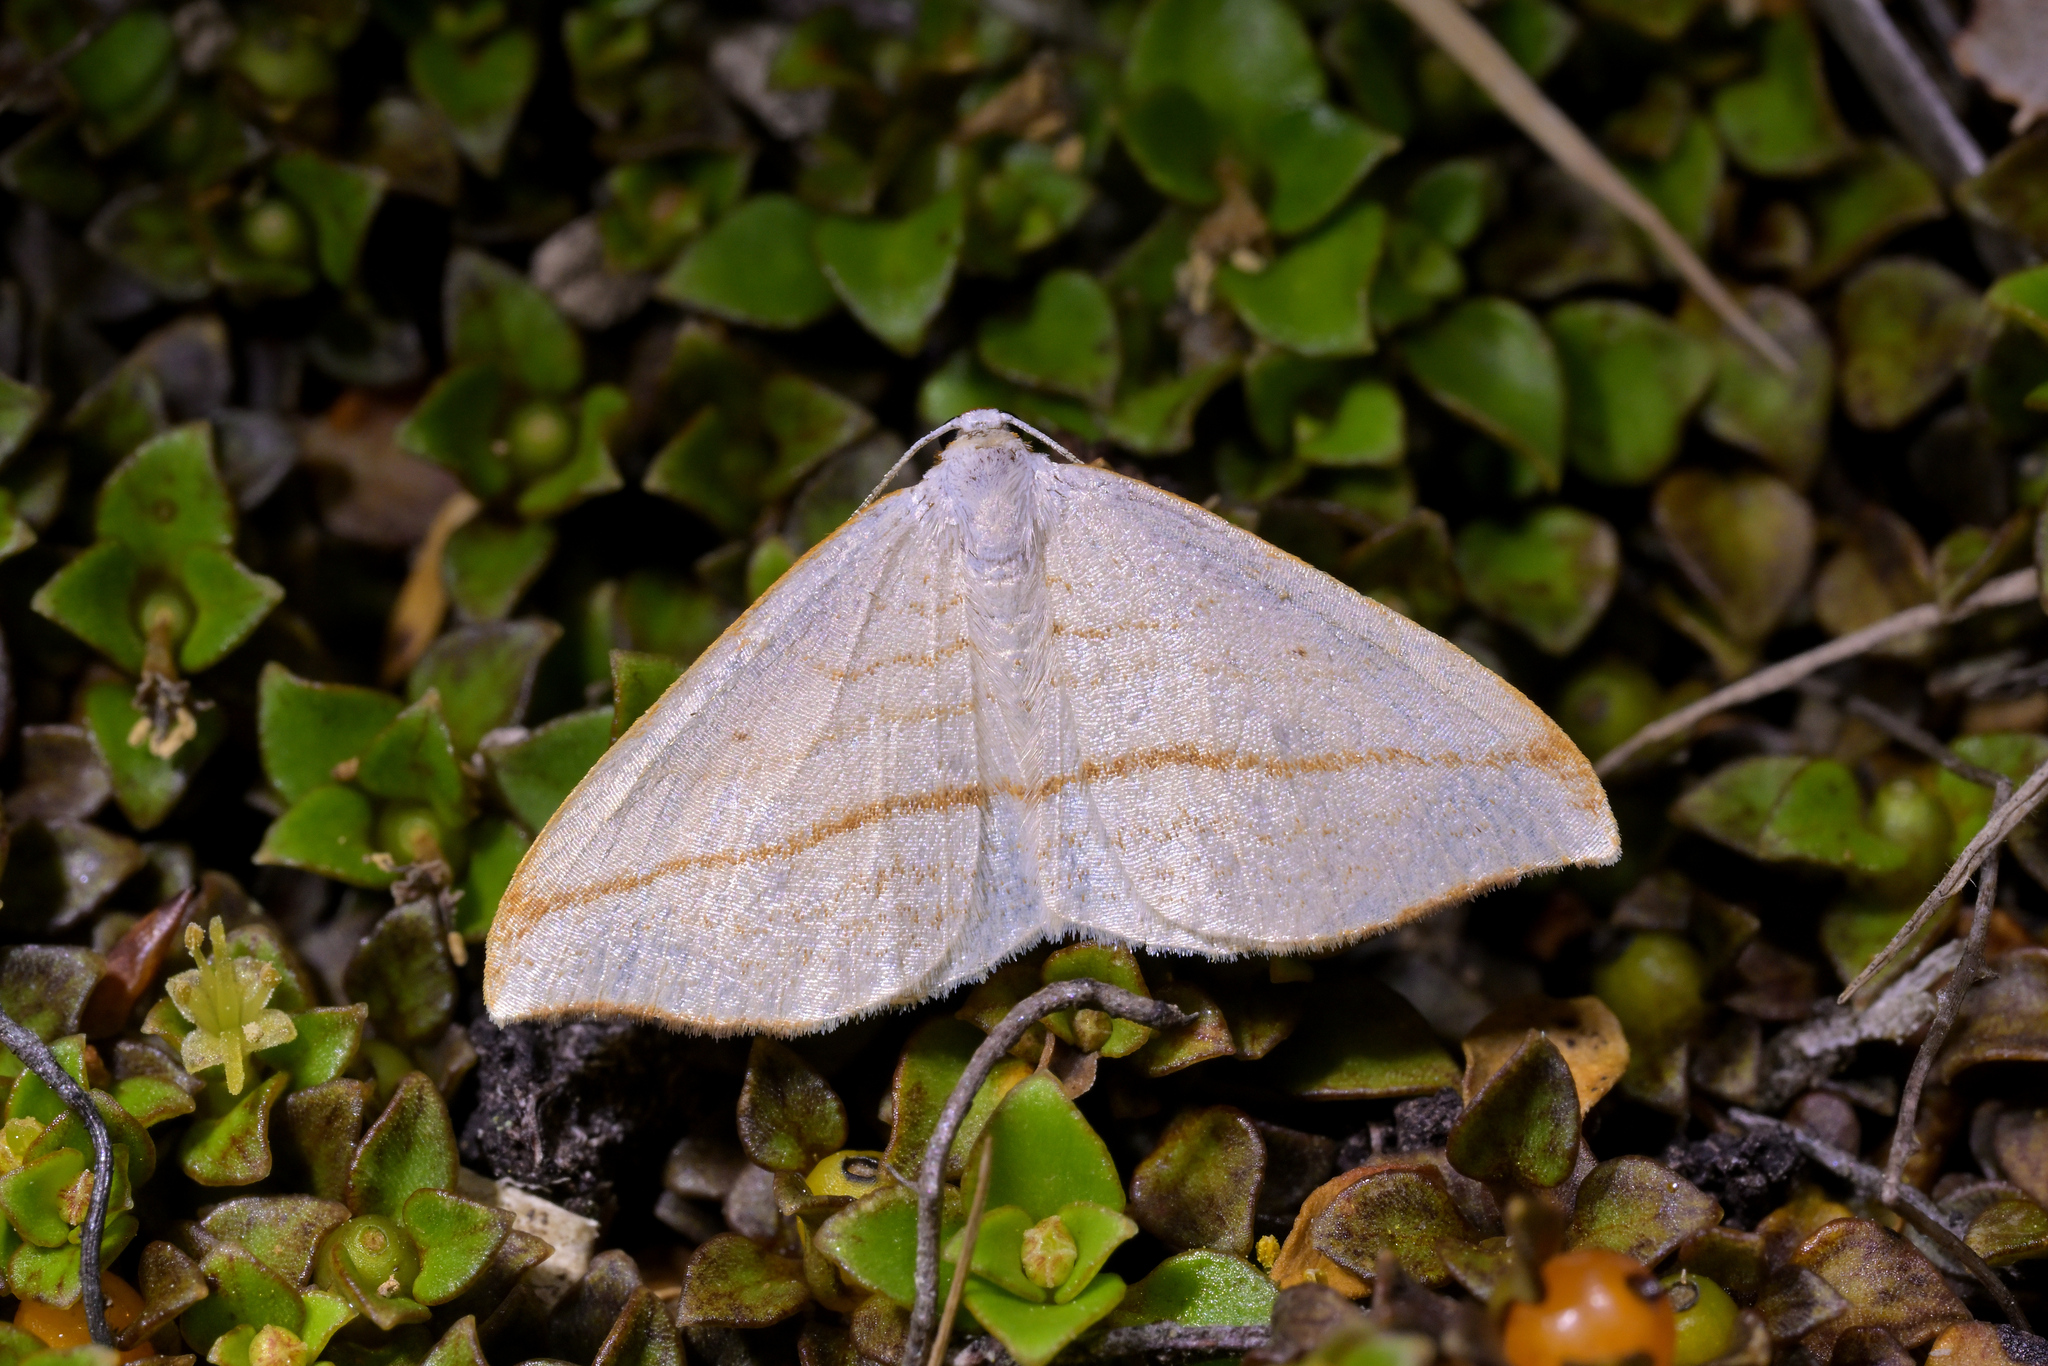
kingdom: Animalia
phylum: Arthropoda
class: Insecta
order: Lepidoptera
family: Geometridae
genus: Orthoclydon
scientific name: Orthoclydon pseudostinaria
